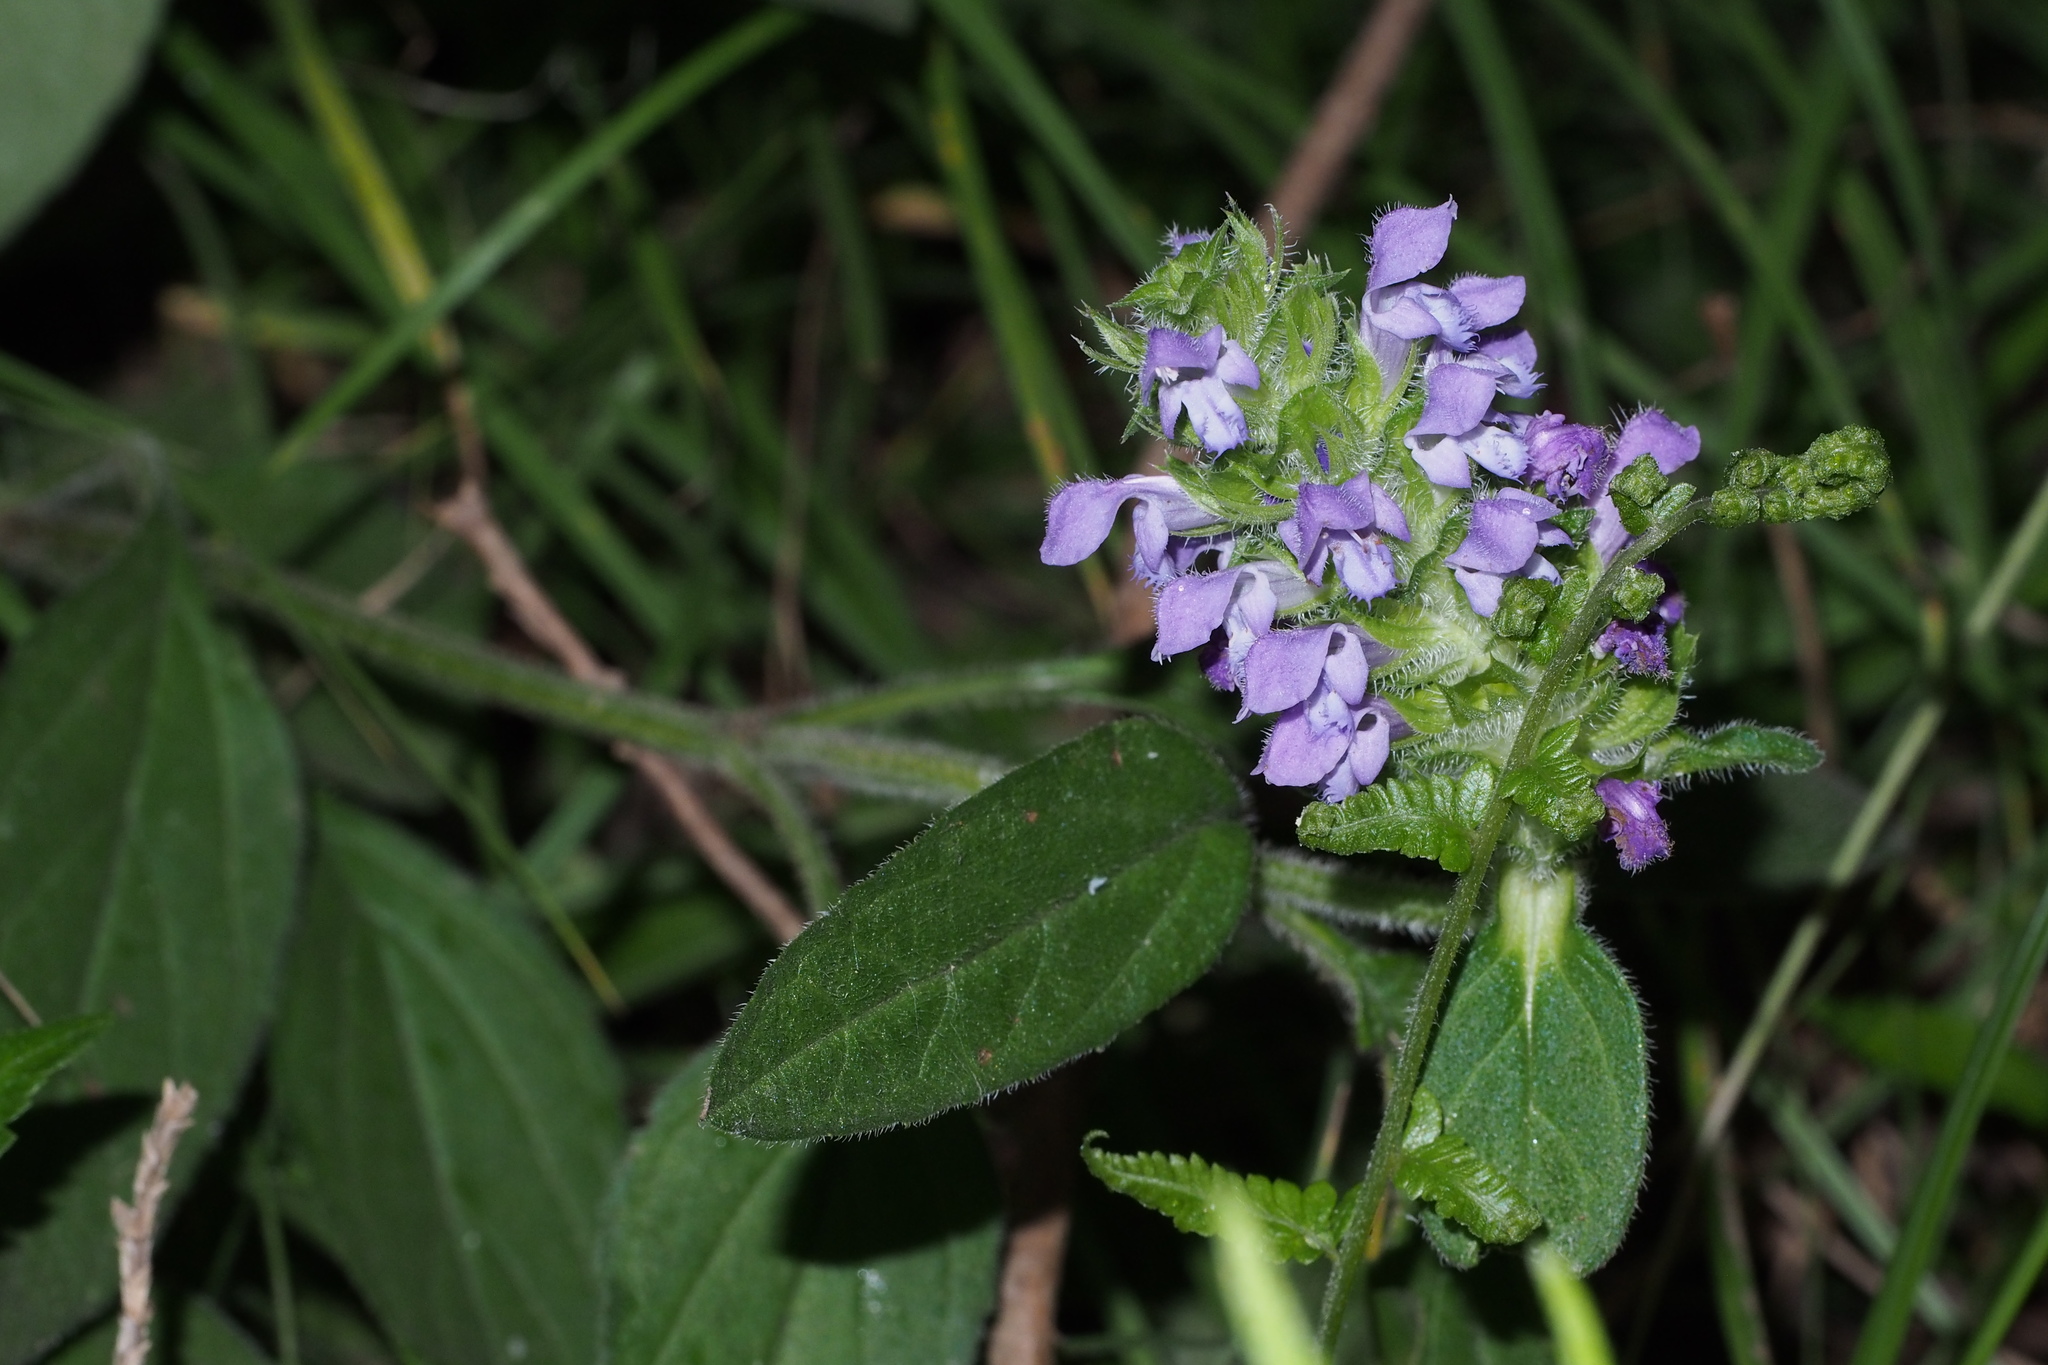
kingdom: Plantae
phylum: Tracheophyta
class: Magnoliopsida
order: Lamiales
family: Lamiaceae
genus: Prunella
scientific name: Prunella vulgaris
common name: Heal-all
